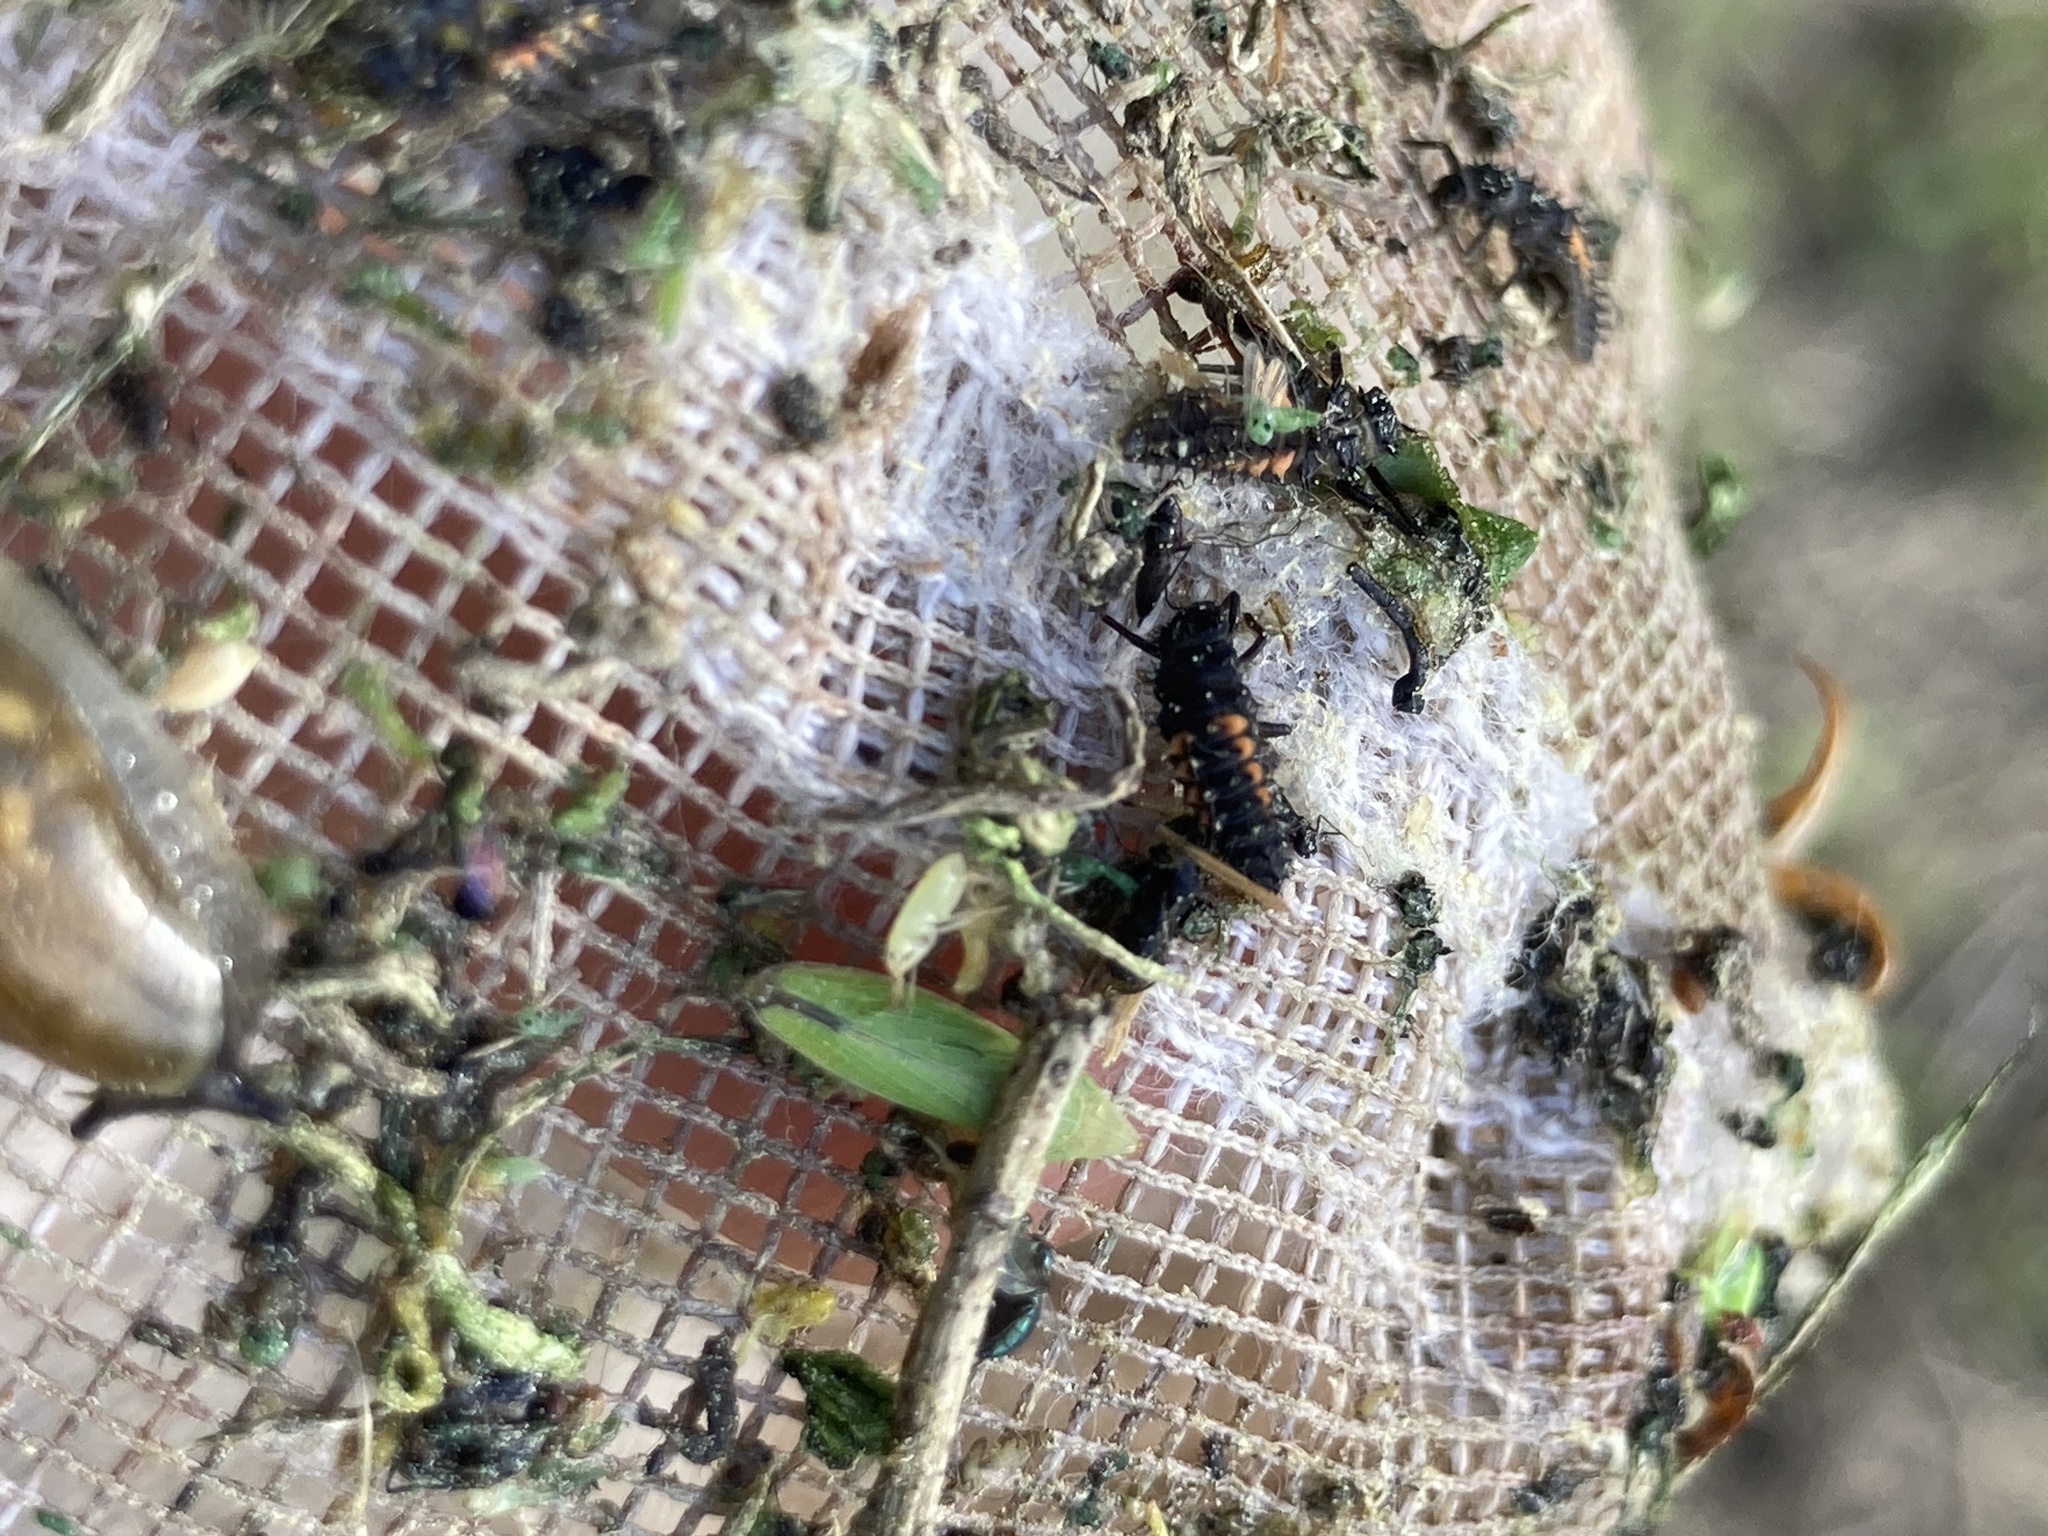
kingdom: Animalia
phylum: Arthropoda
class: Insecta
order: Coleoptera
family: Coccinellidae
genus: Harmonia
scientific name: Harmonia axyridis
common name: Harlequin ladybird
